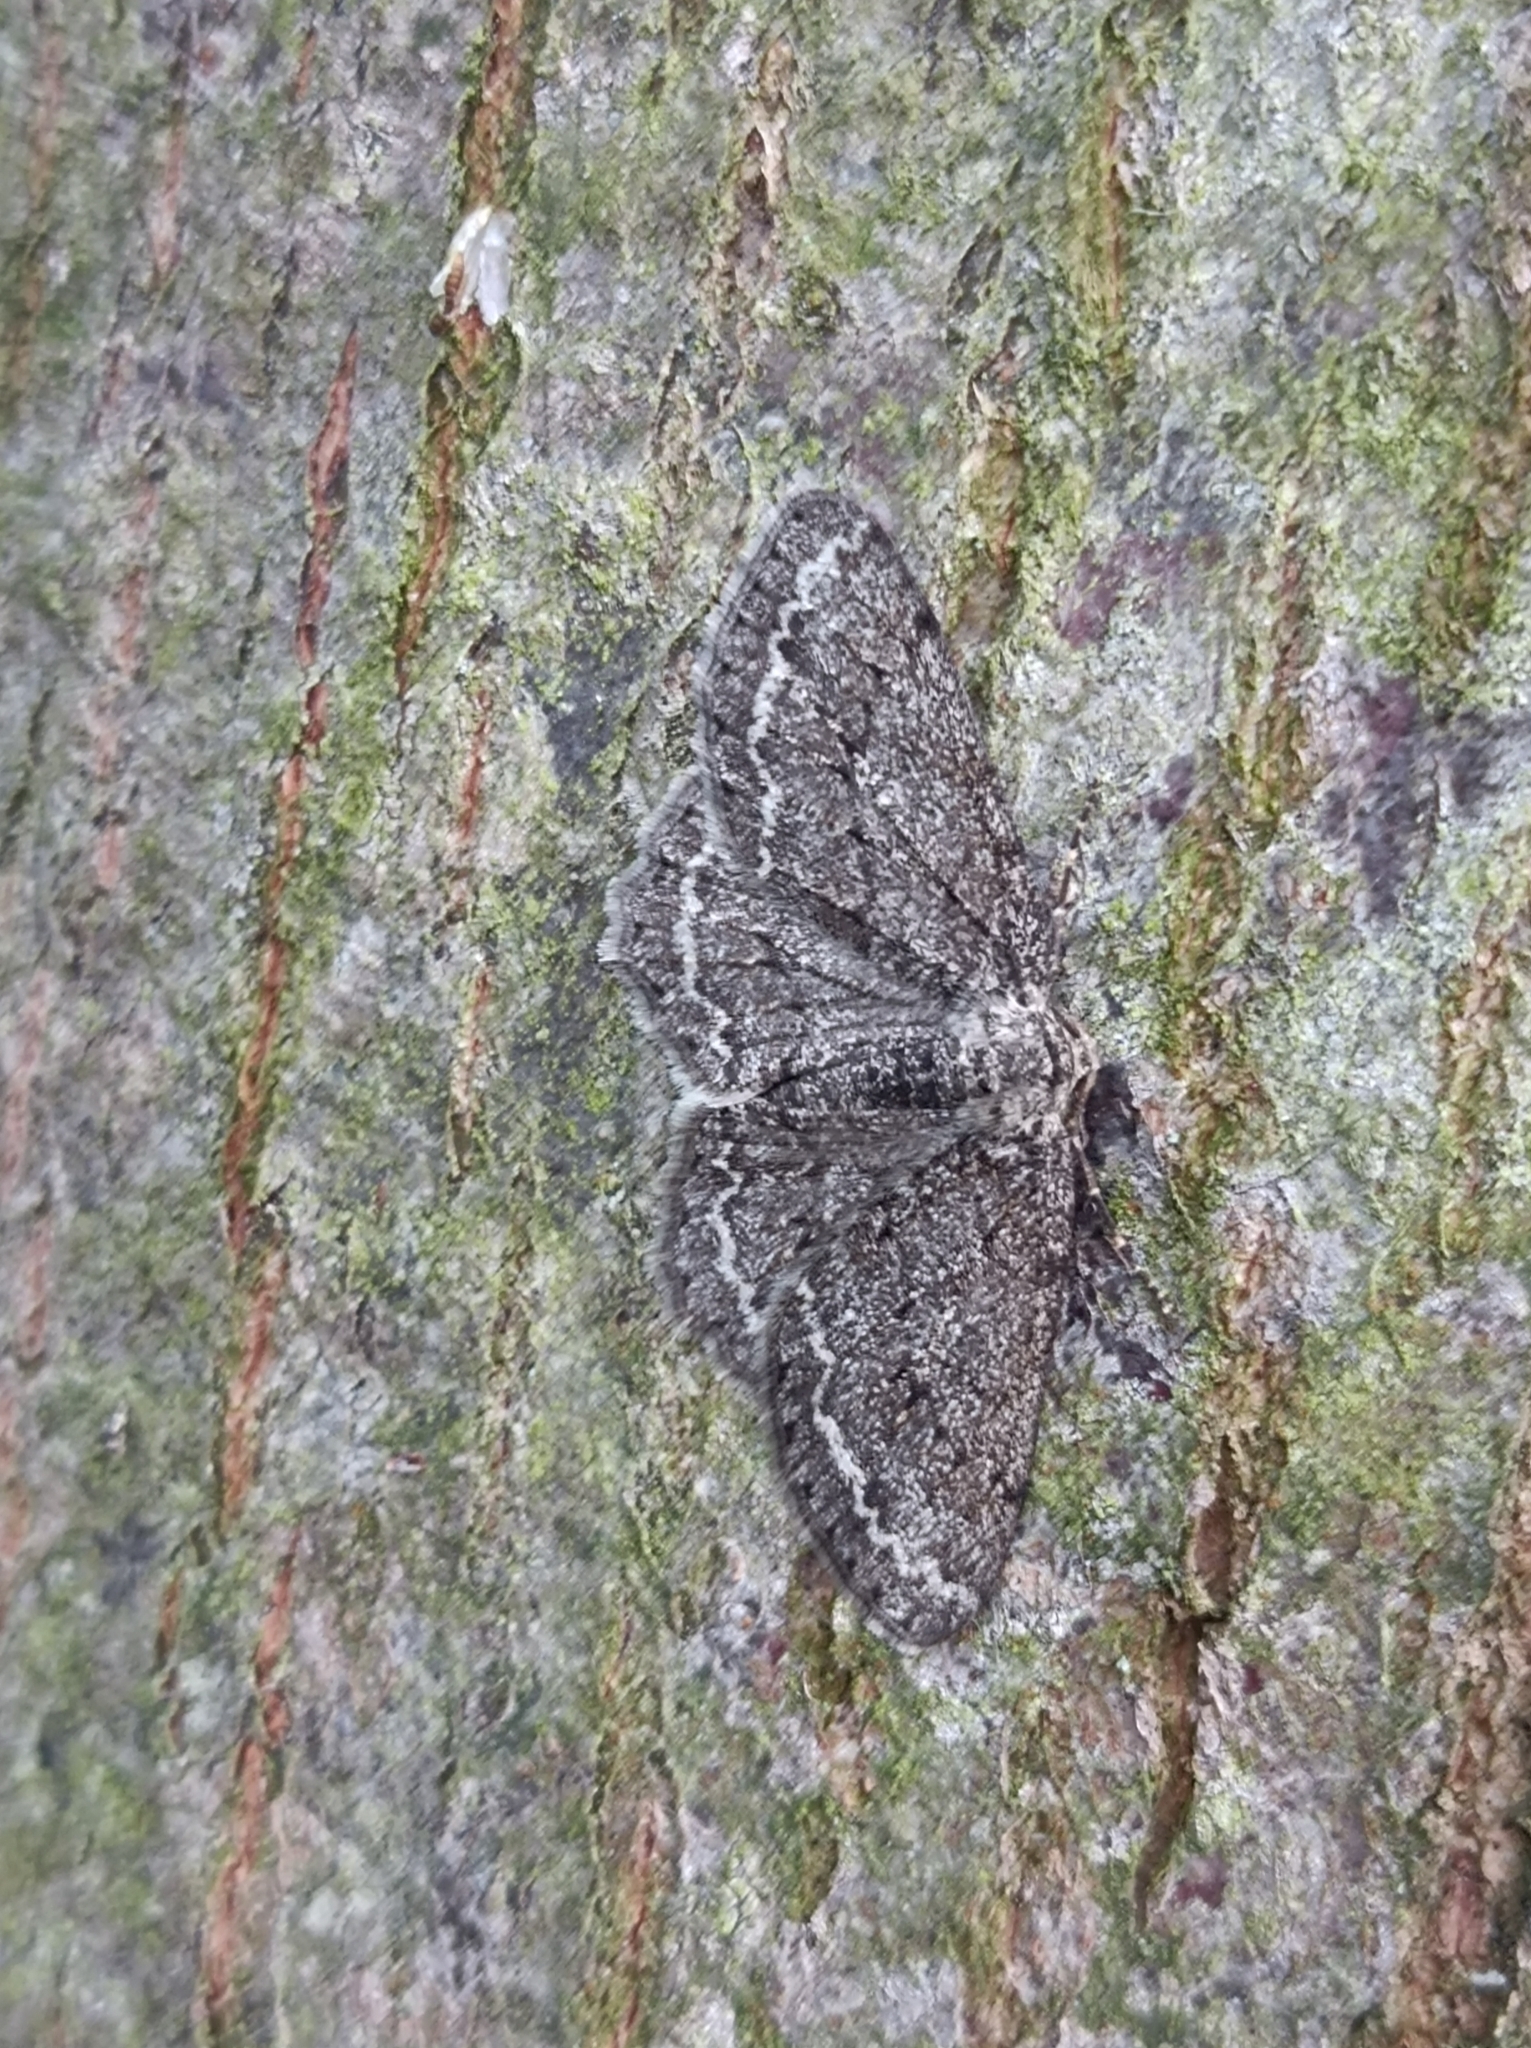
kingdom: Animalia
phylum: Arthropoda
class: Insecta
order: Lepidoptera
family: Geometridae
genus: Ectropis
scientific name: Ectropis crepuscularia
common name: Engrailed
